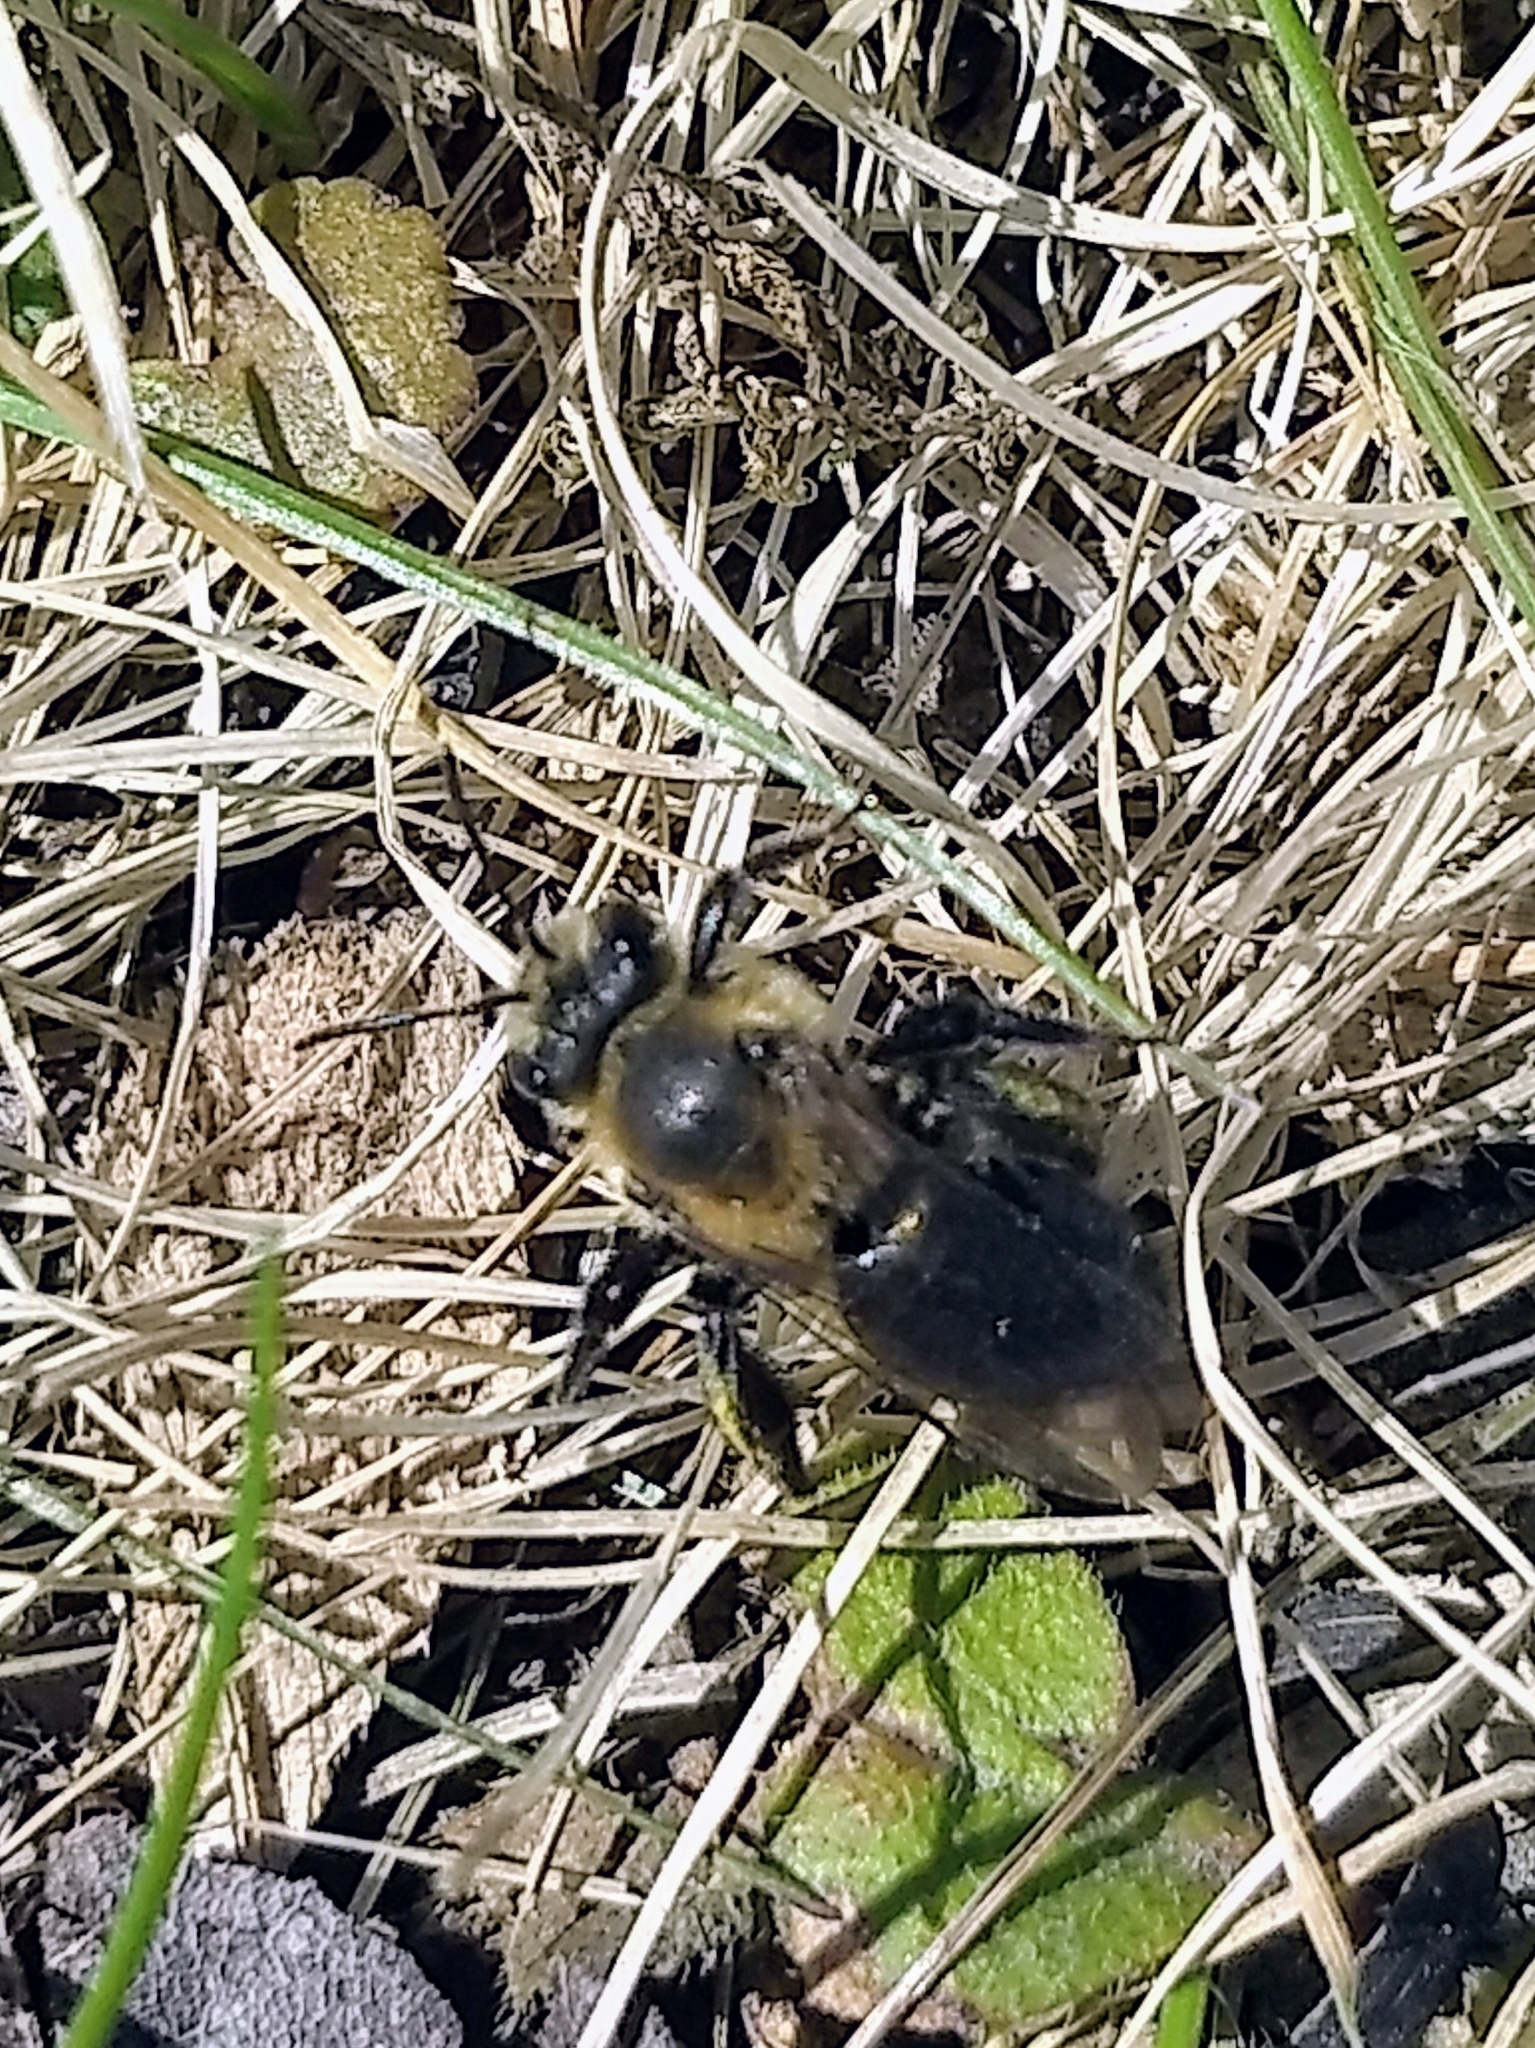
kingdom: Animalia
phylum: Arthropoda
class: Insecta
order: Hymenoptera
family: Andrenidae
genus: Andrena
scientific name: Andrena vicina
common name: Neighborly mining bee
